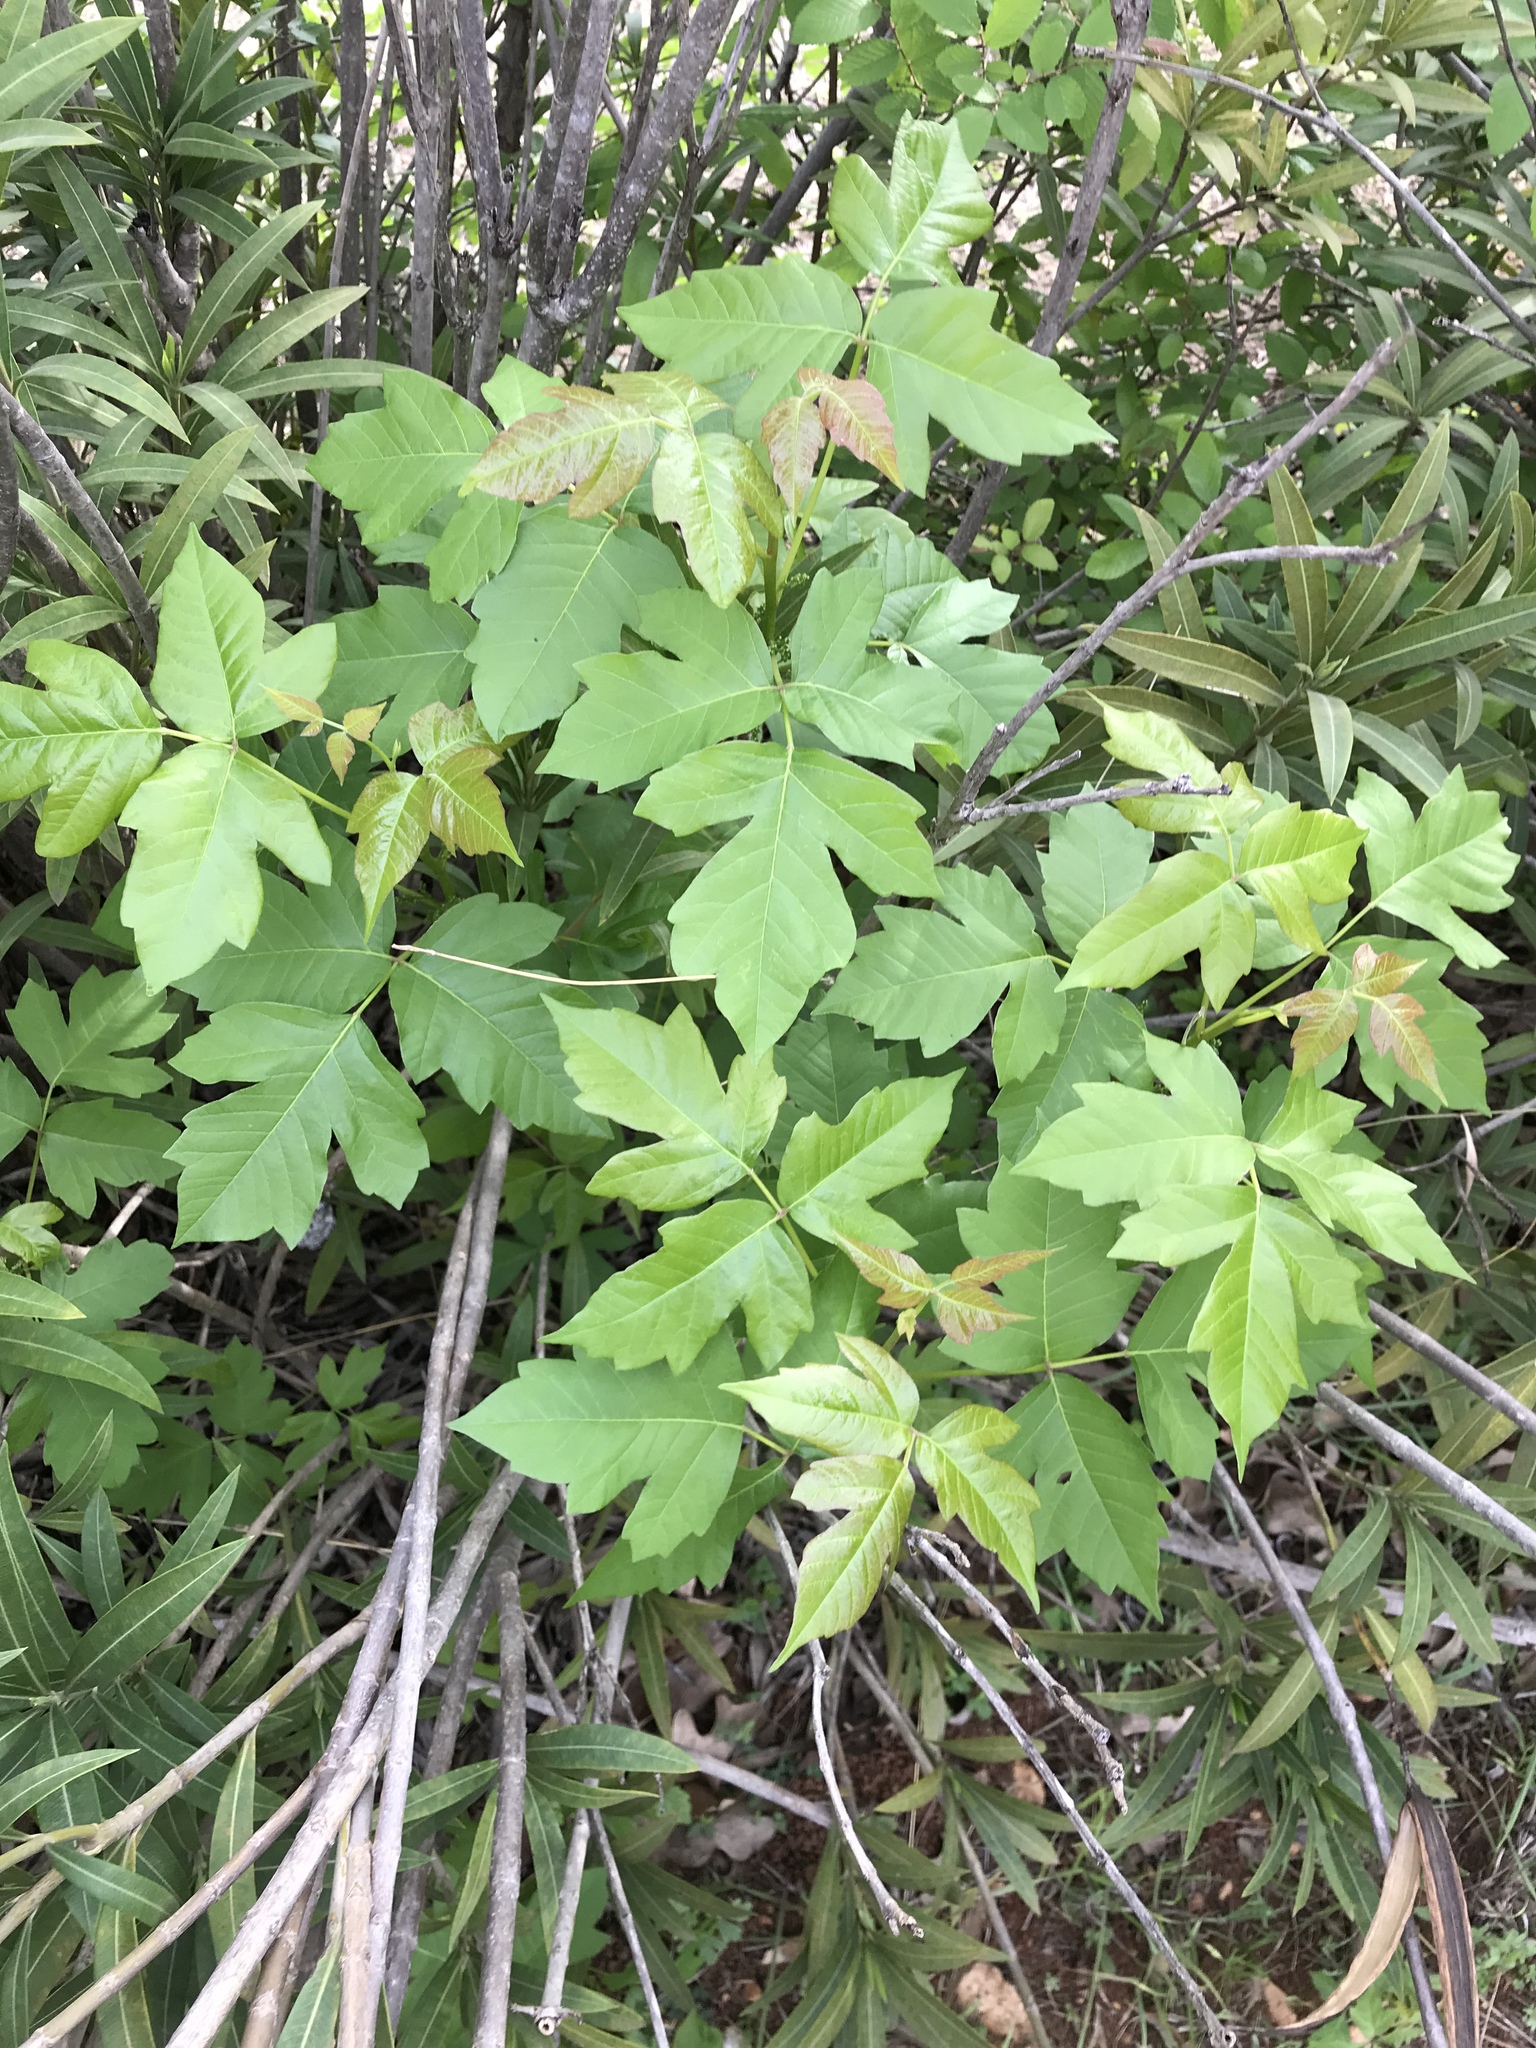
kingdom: Plantae
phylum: Tracheophyta
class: Magnoliopsida
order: Sapindales
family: Anacardiaceae
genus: Toxicodendron
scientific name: Toxicodendron radicans
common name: Poison ivy
